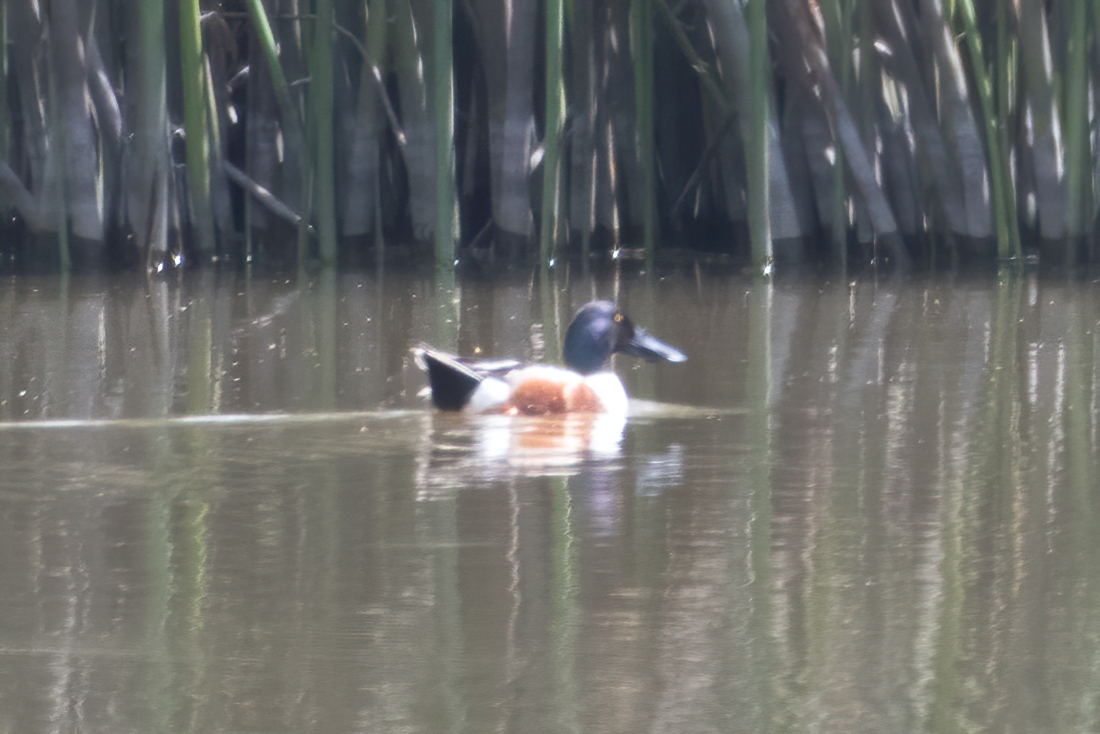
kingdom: Animalia
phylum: Chordata
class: Aves
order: Anseriformes
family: Anatidae
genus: Spatula
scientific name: Spatula clypeata
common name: Northern shoveler
